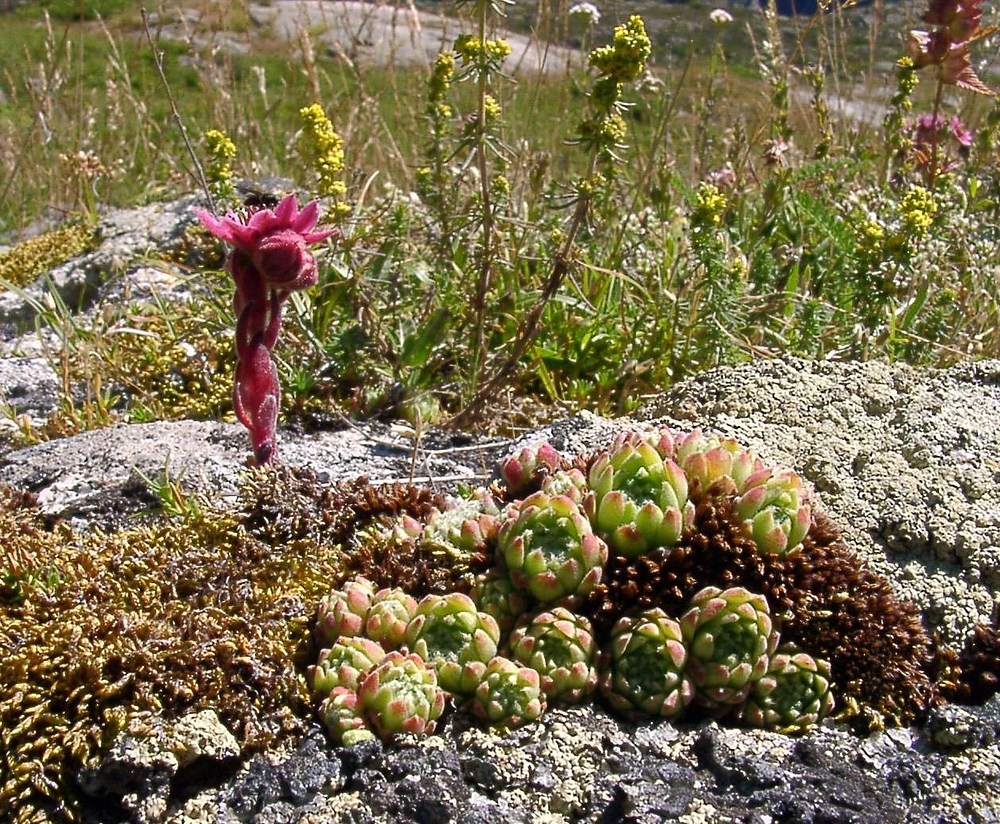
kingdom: Plantae
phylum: Tracheophyta
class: Magnoliopsida
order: Saxifragales
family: Crassulaceae
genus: Sempervivum
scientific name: Sempervivum montanum
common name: Mountain house-leek
